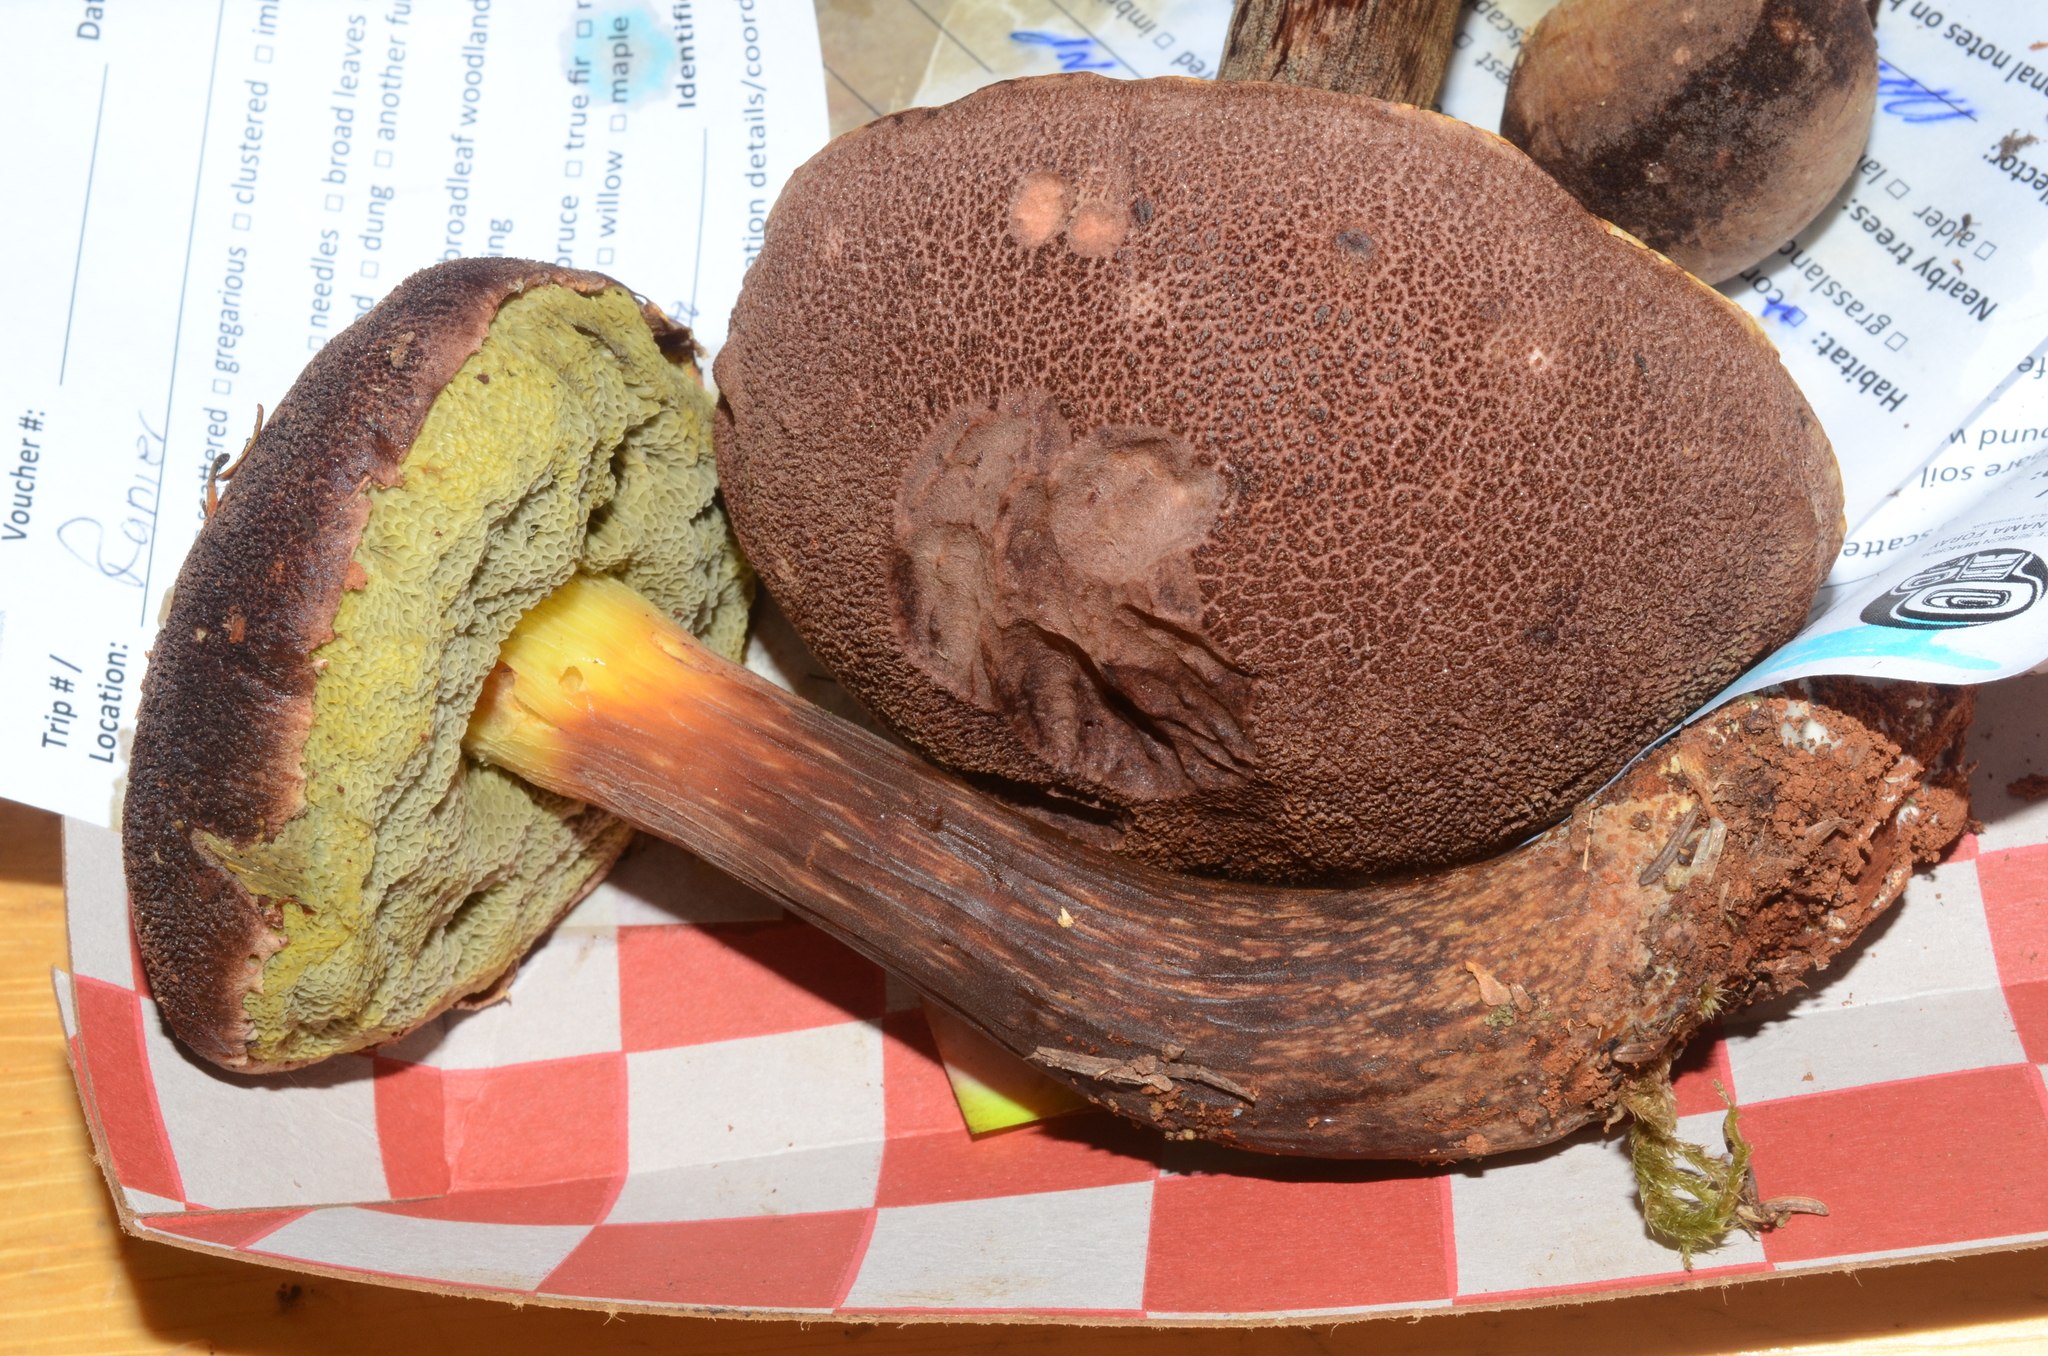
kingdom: Fungi
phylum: Basidiomycota
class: Agaricomycetes
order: Boletales
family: Boletaceae
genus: Aureoboletus
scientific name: Aureoboletus mirabilis
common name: Admirable bolete
